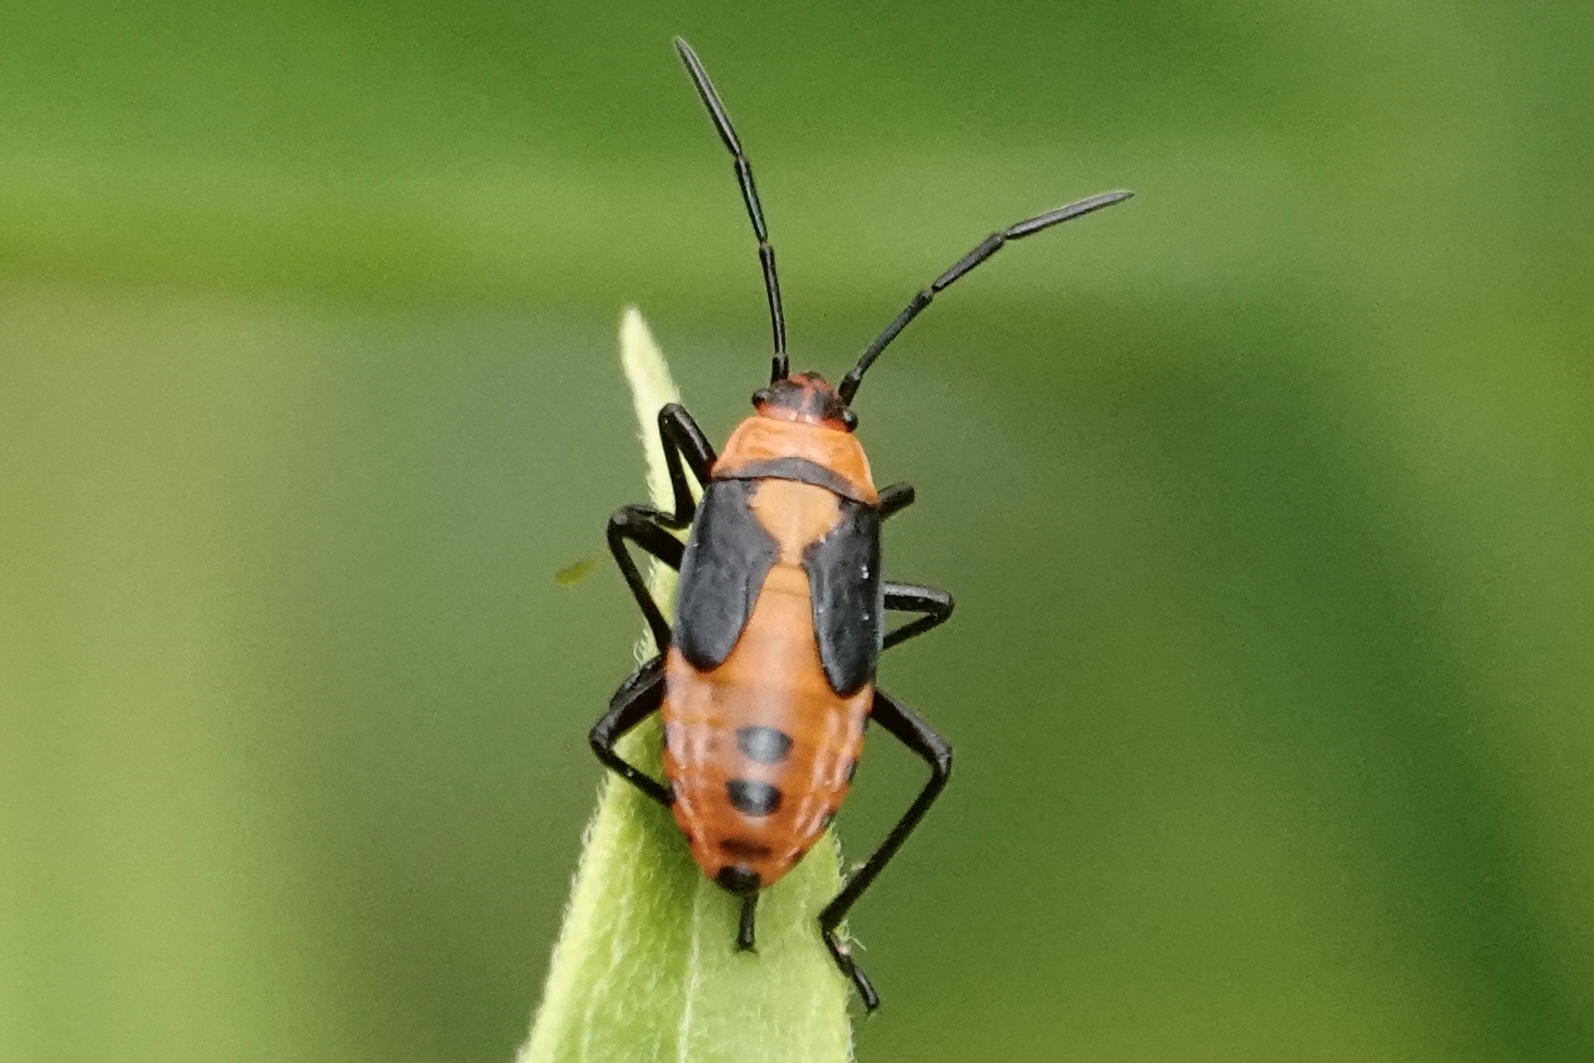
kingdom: Animalia
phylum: Arthropoda
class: Insecta
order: Hemiptera
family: Lygaeidae
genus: Oncopeltus
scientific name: Oncopeltus fasciatus
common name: Large milkweed bug
